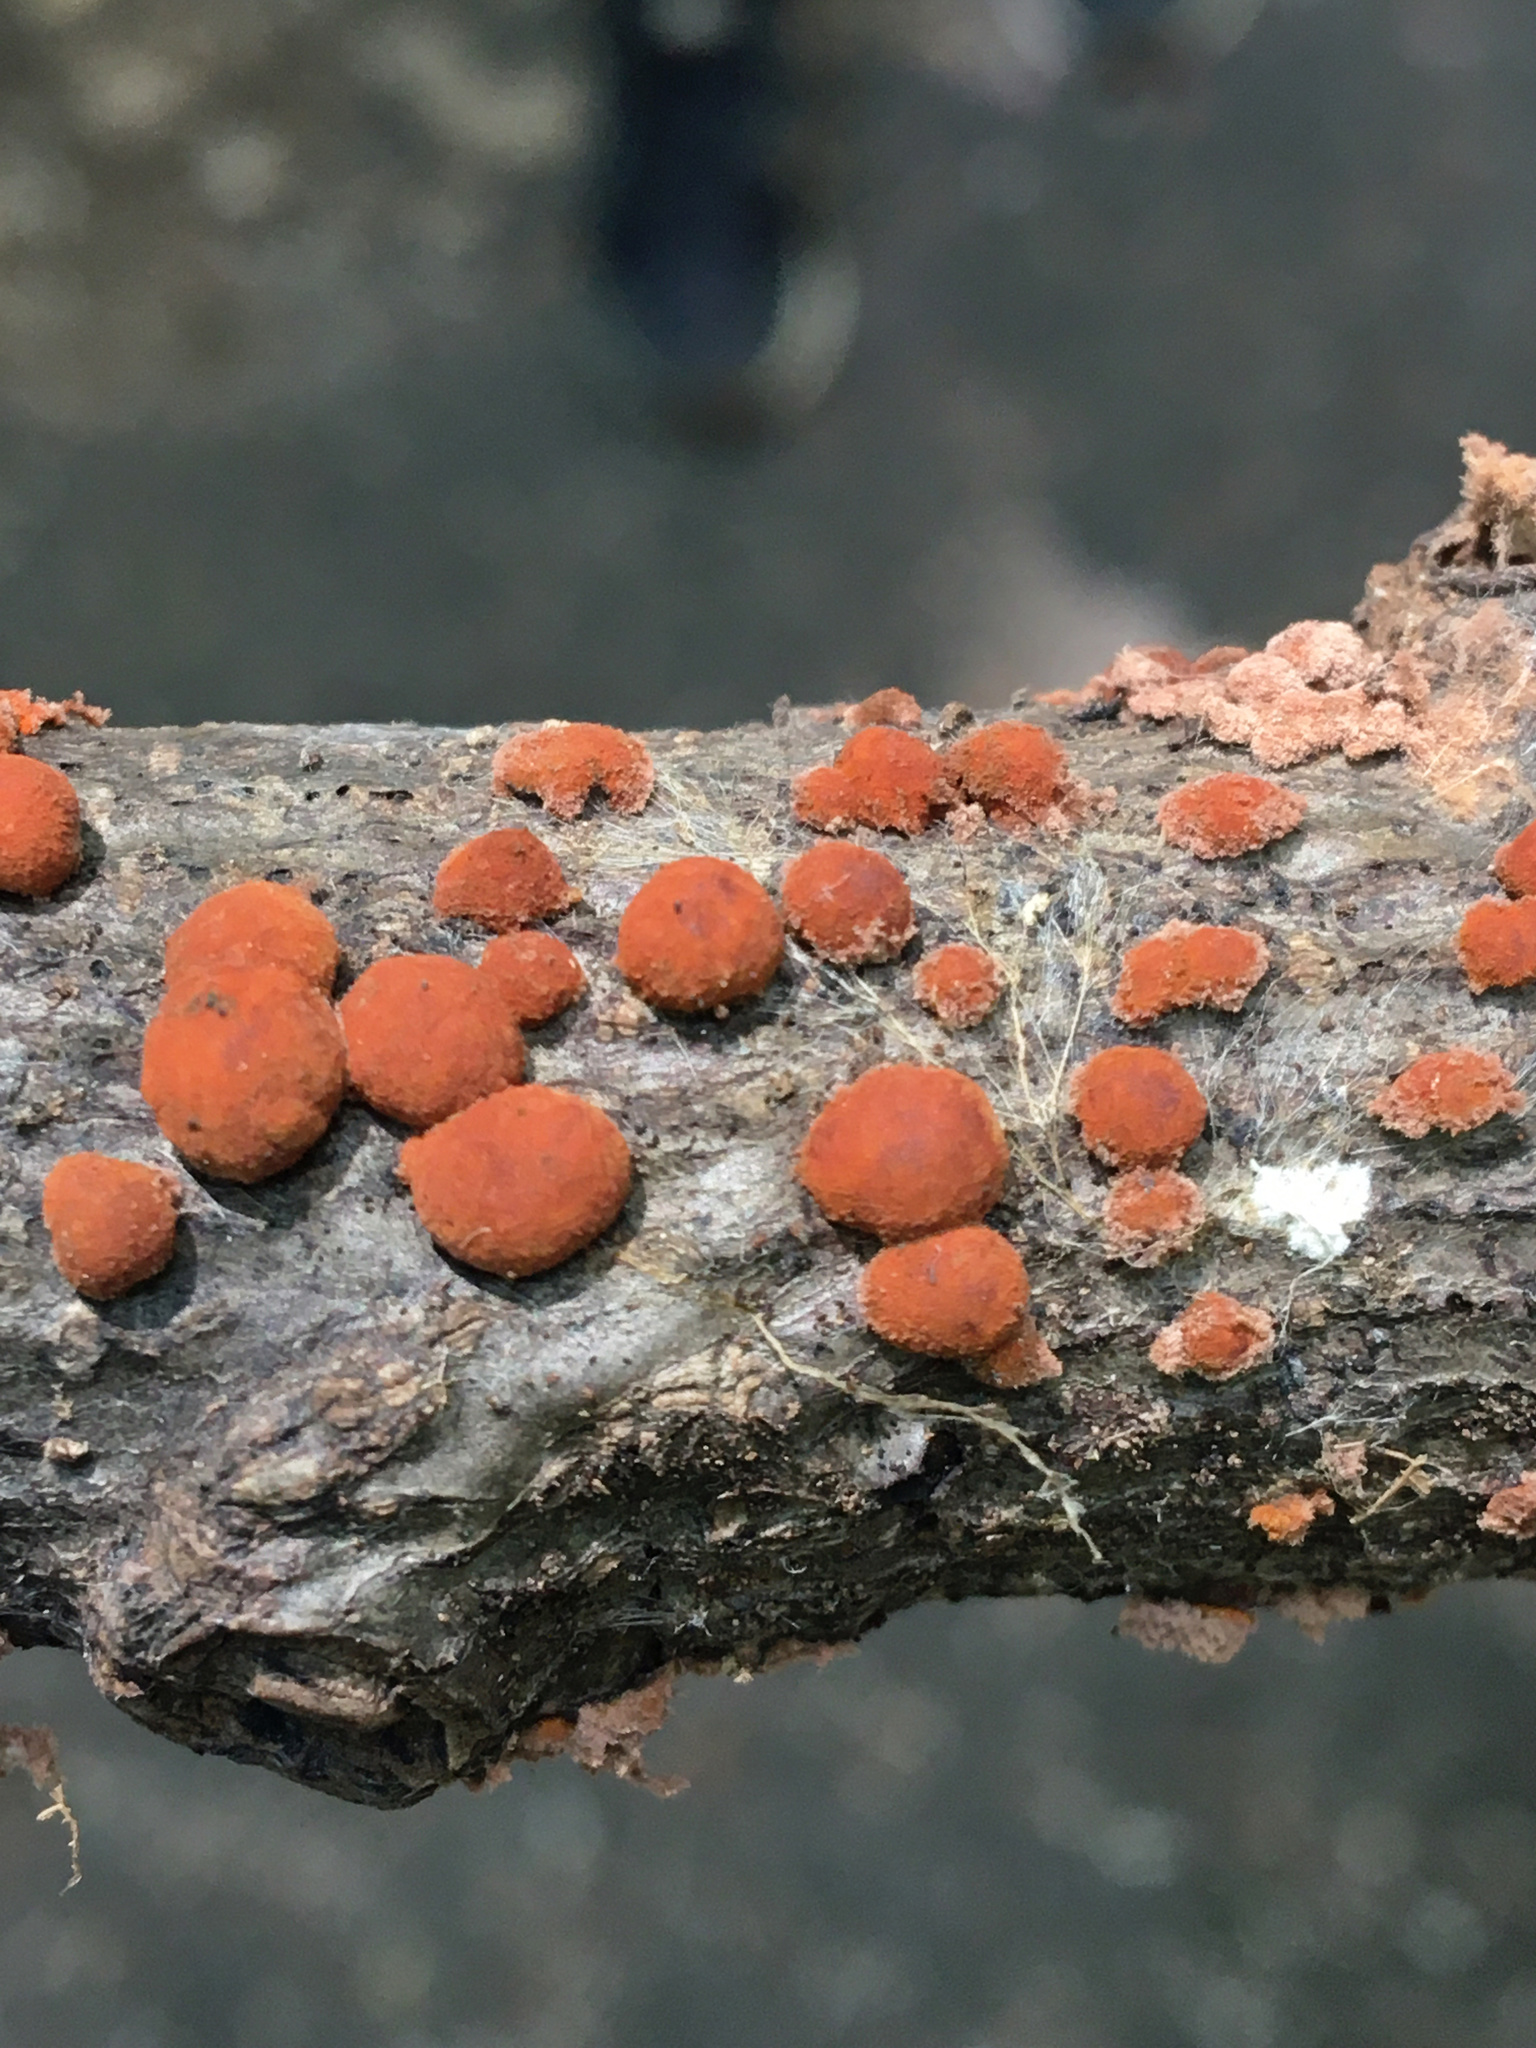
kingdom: Fungi
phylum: Ascomycota
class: Sordariomycetes
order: Xylariales
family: Hypoxylaceae
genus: Hypoxylon
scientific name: Hypoxylon howeanum
